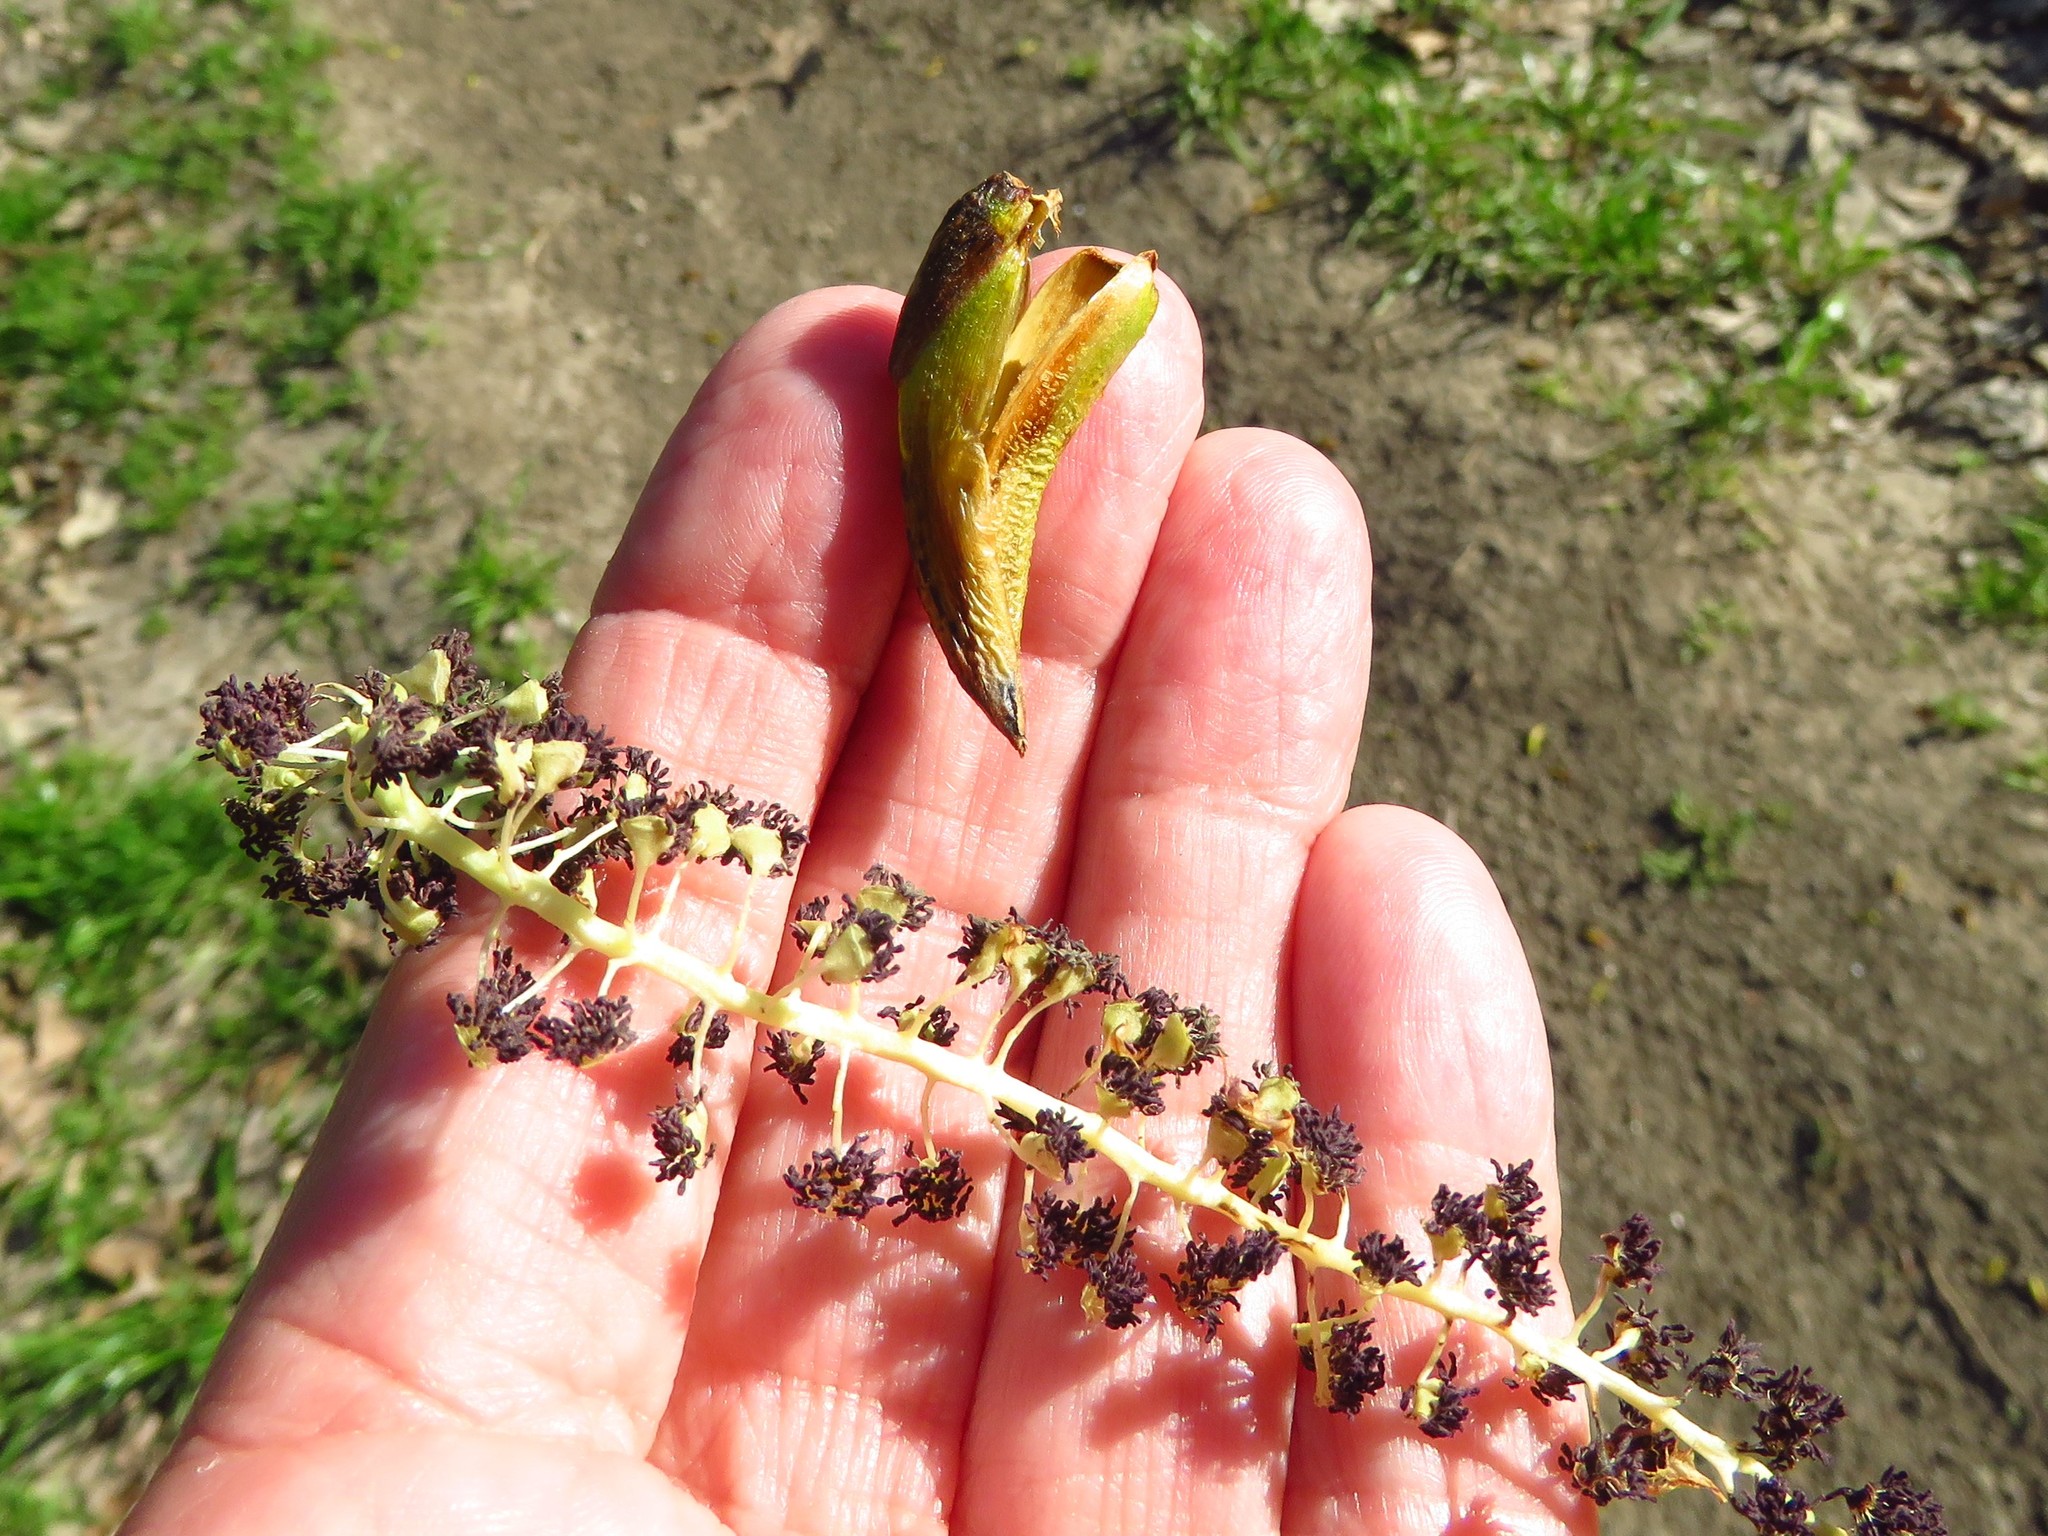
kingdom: Plantae
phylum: Tracheophyta
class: Magnoliopsida
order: Malpighiales
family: Salicaceae
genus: Populus
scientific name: Populus deltoides
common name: Eastern cottonwood
